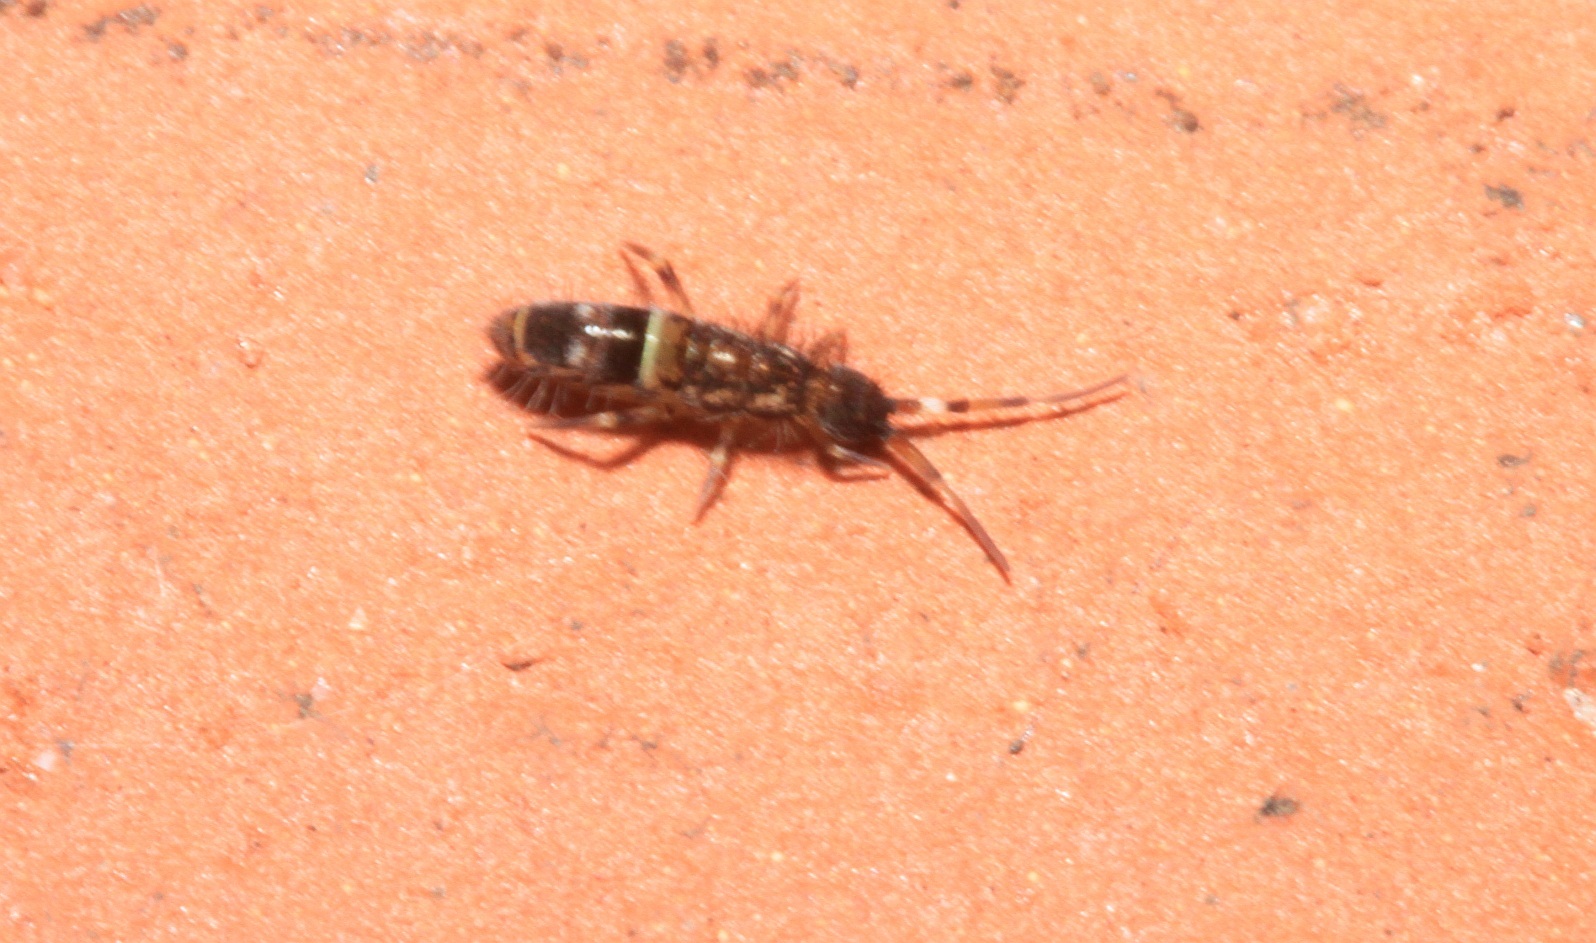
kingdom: Animalia
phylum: Arthropoda
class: Collembola
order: Entomobryomorpha
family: Orchesellidae
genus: Orchesella
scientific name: Orchesella cincta
